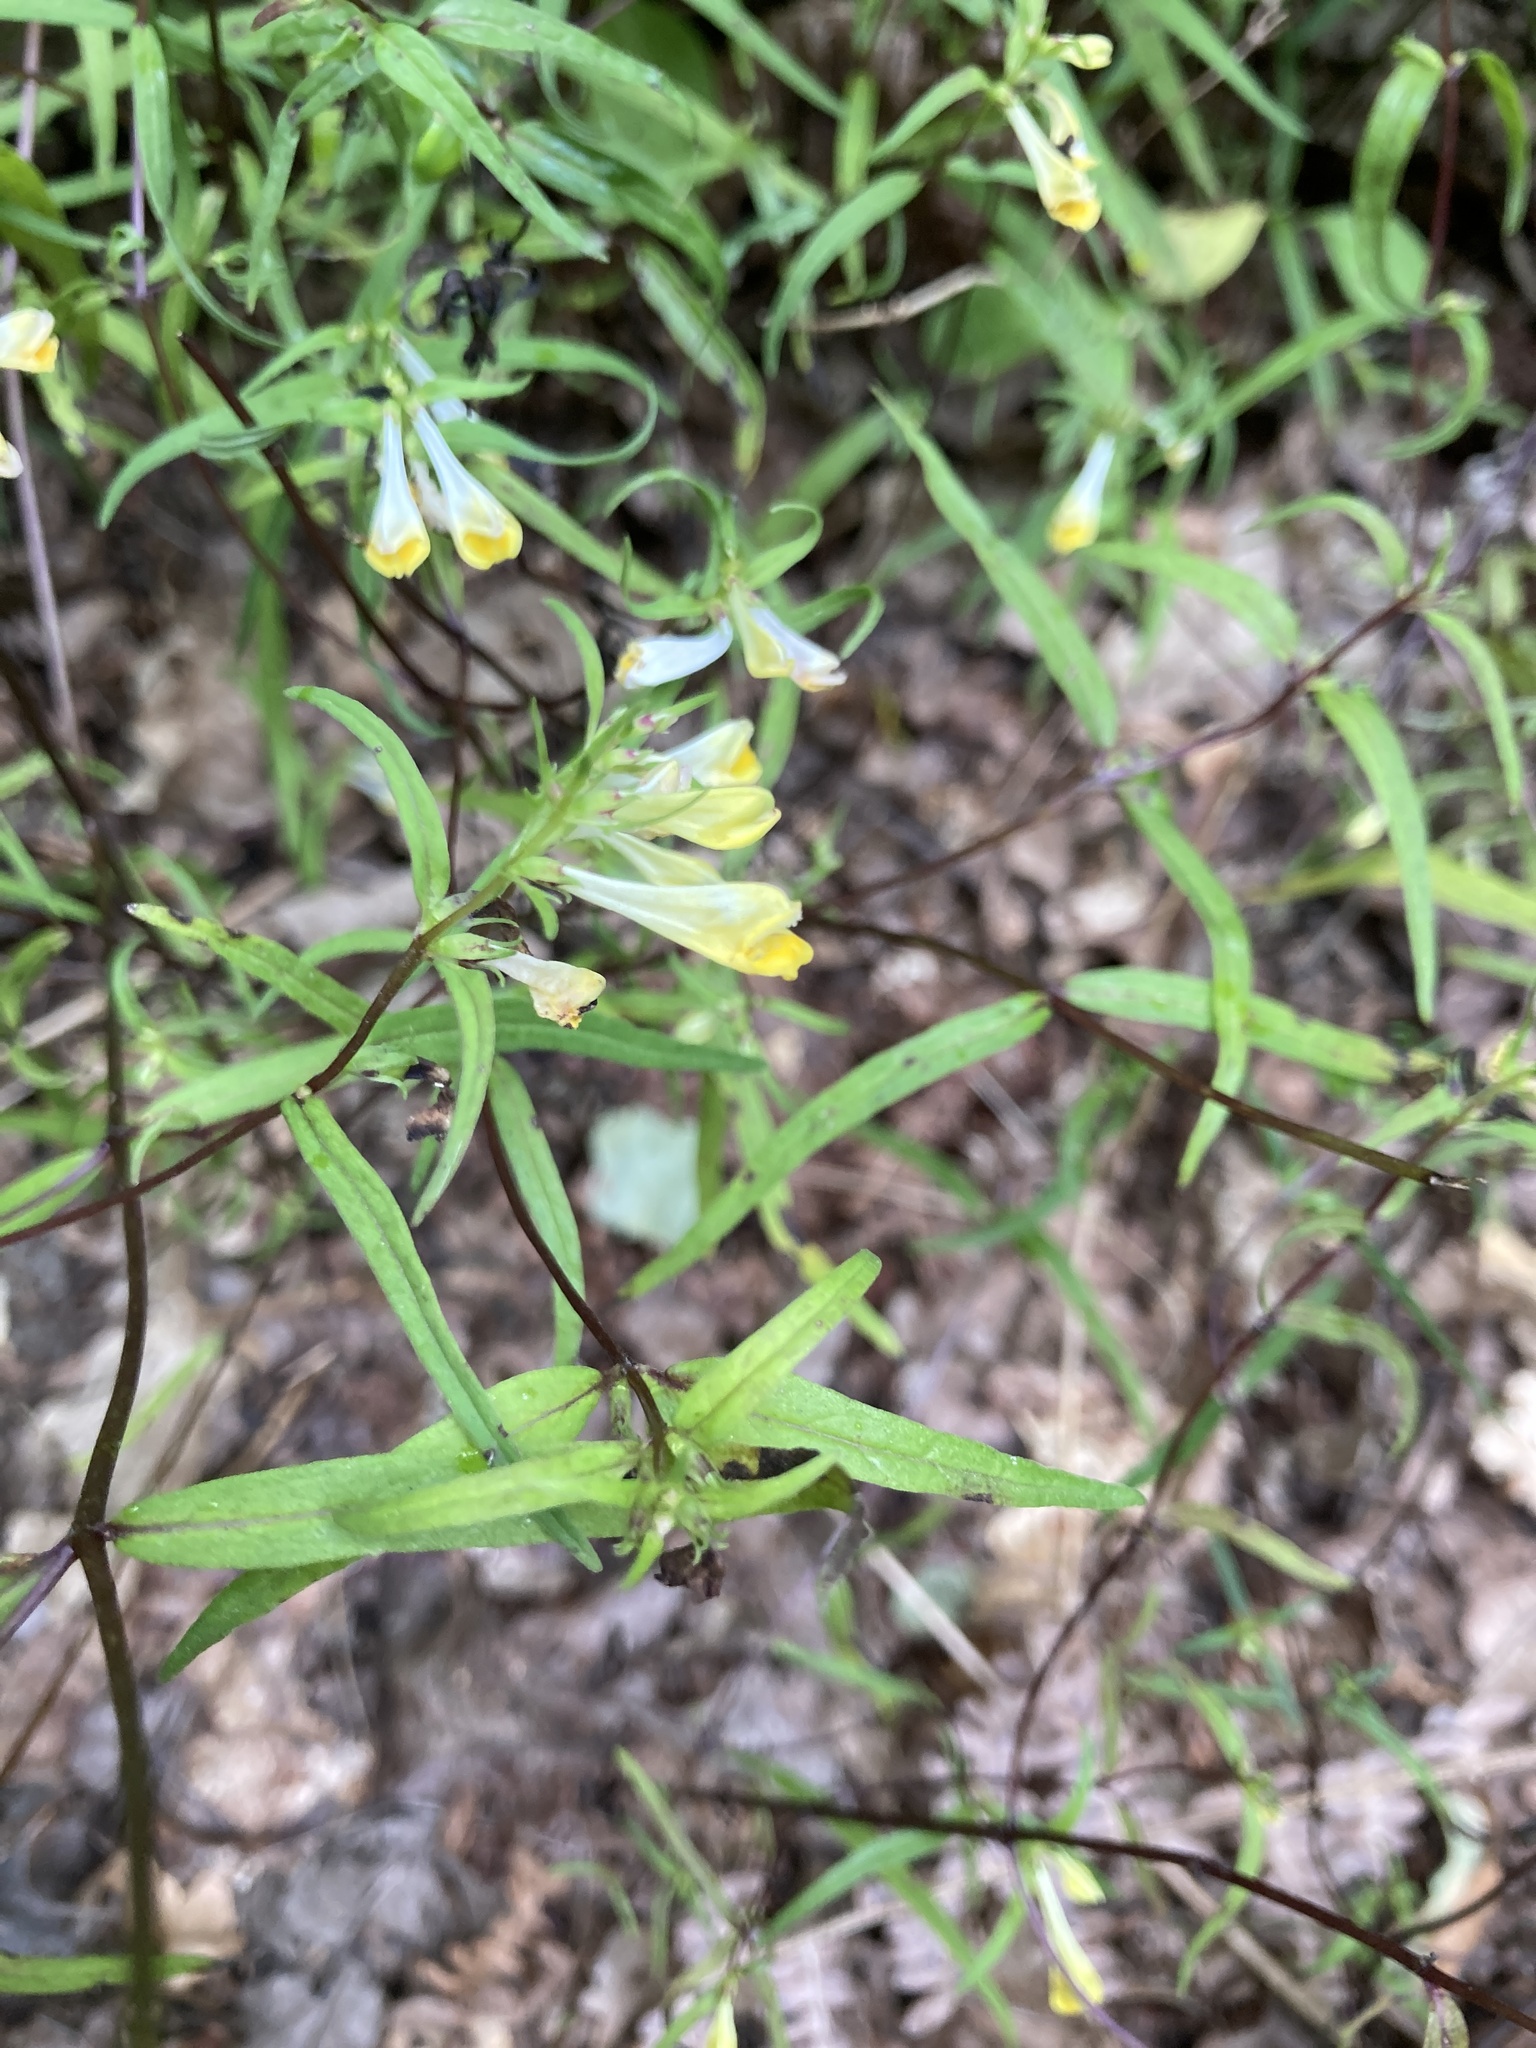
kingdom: Plantae
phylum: Tracheophyta
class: Magnoliopsida
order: Lamiales
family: Orobanchaceae
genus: Melampyrum
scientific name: Melampyrum pratense
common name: Common cow-wheat
